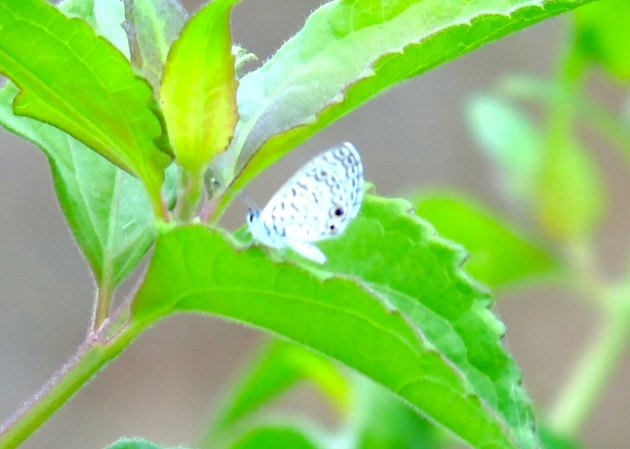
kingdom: Animalia
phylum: Arthropoda
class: Insecta
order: Lepidoptera
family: Lycaenidae
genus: Leptotes
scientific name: Leptotes cassius
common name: Cassius blue
